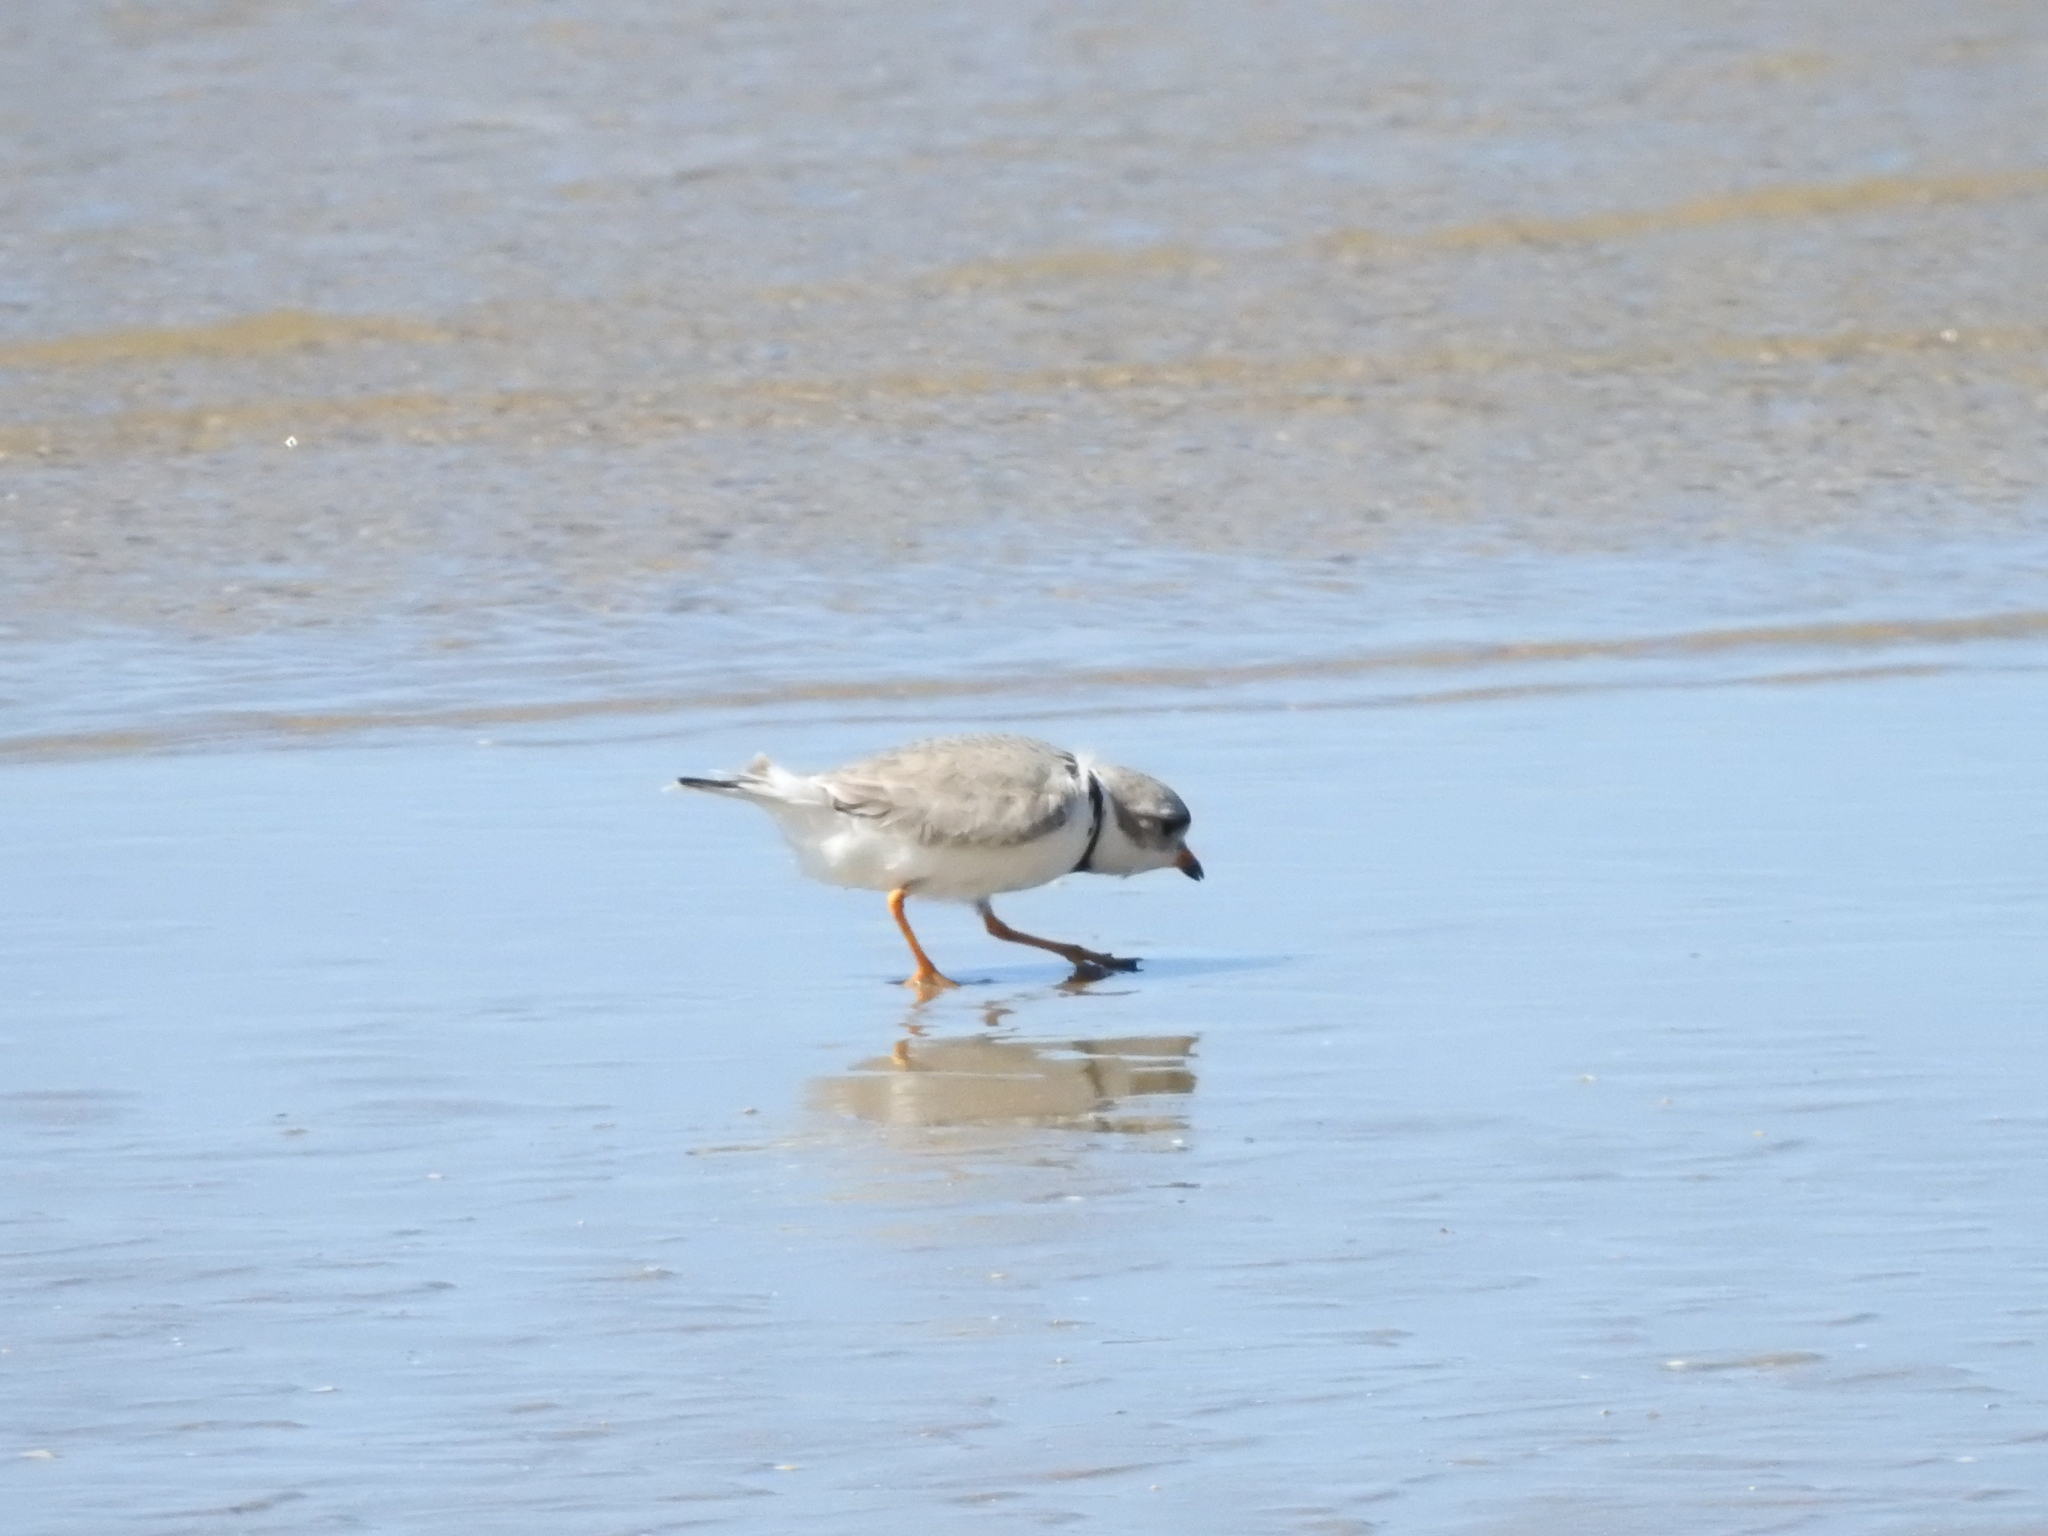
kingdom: Animalia
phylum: Chordata
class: Aves
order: Charadriiformes
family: Charadriidae
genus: Charadrius
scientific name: Charadrius melodus
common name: Piping plover
